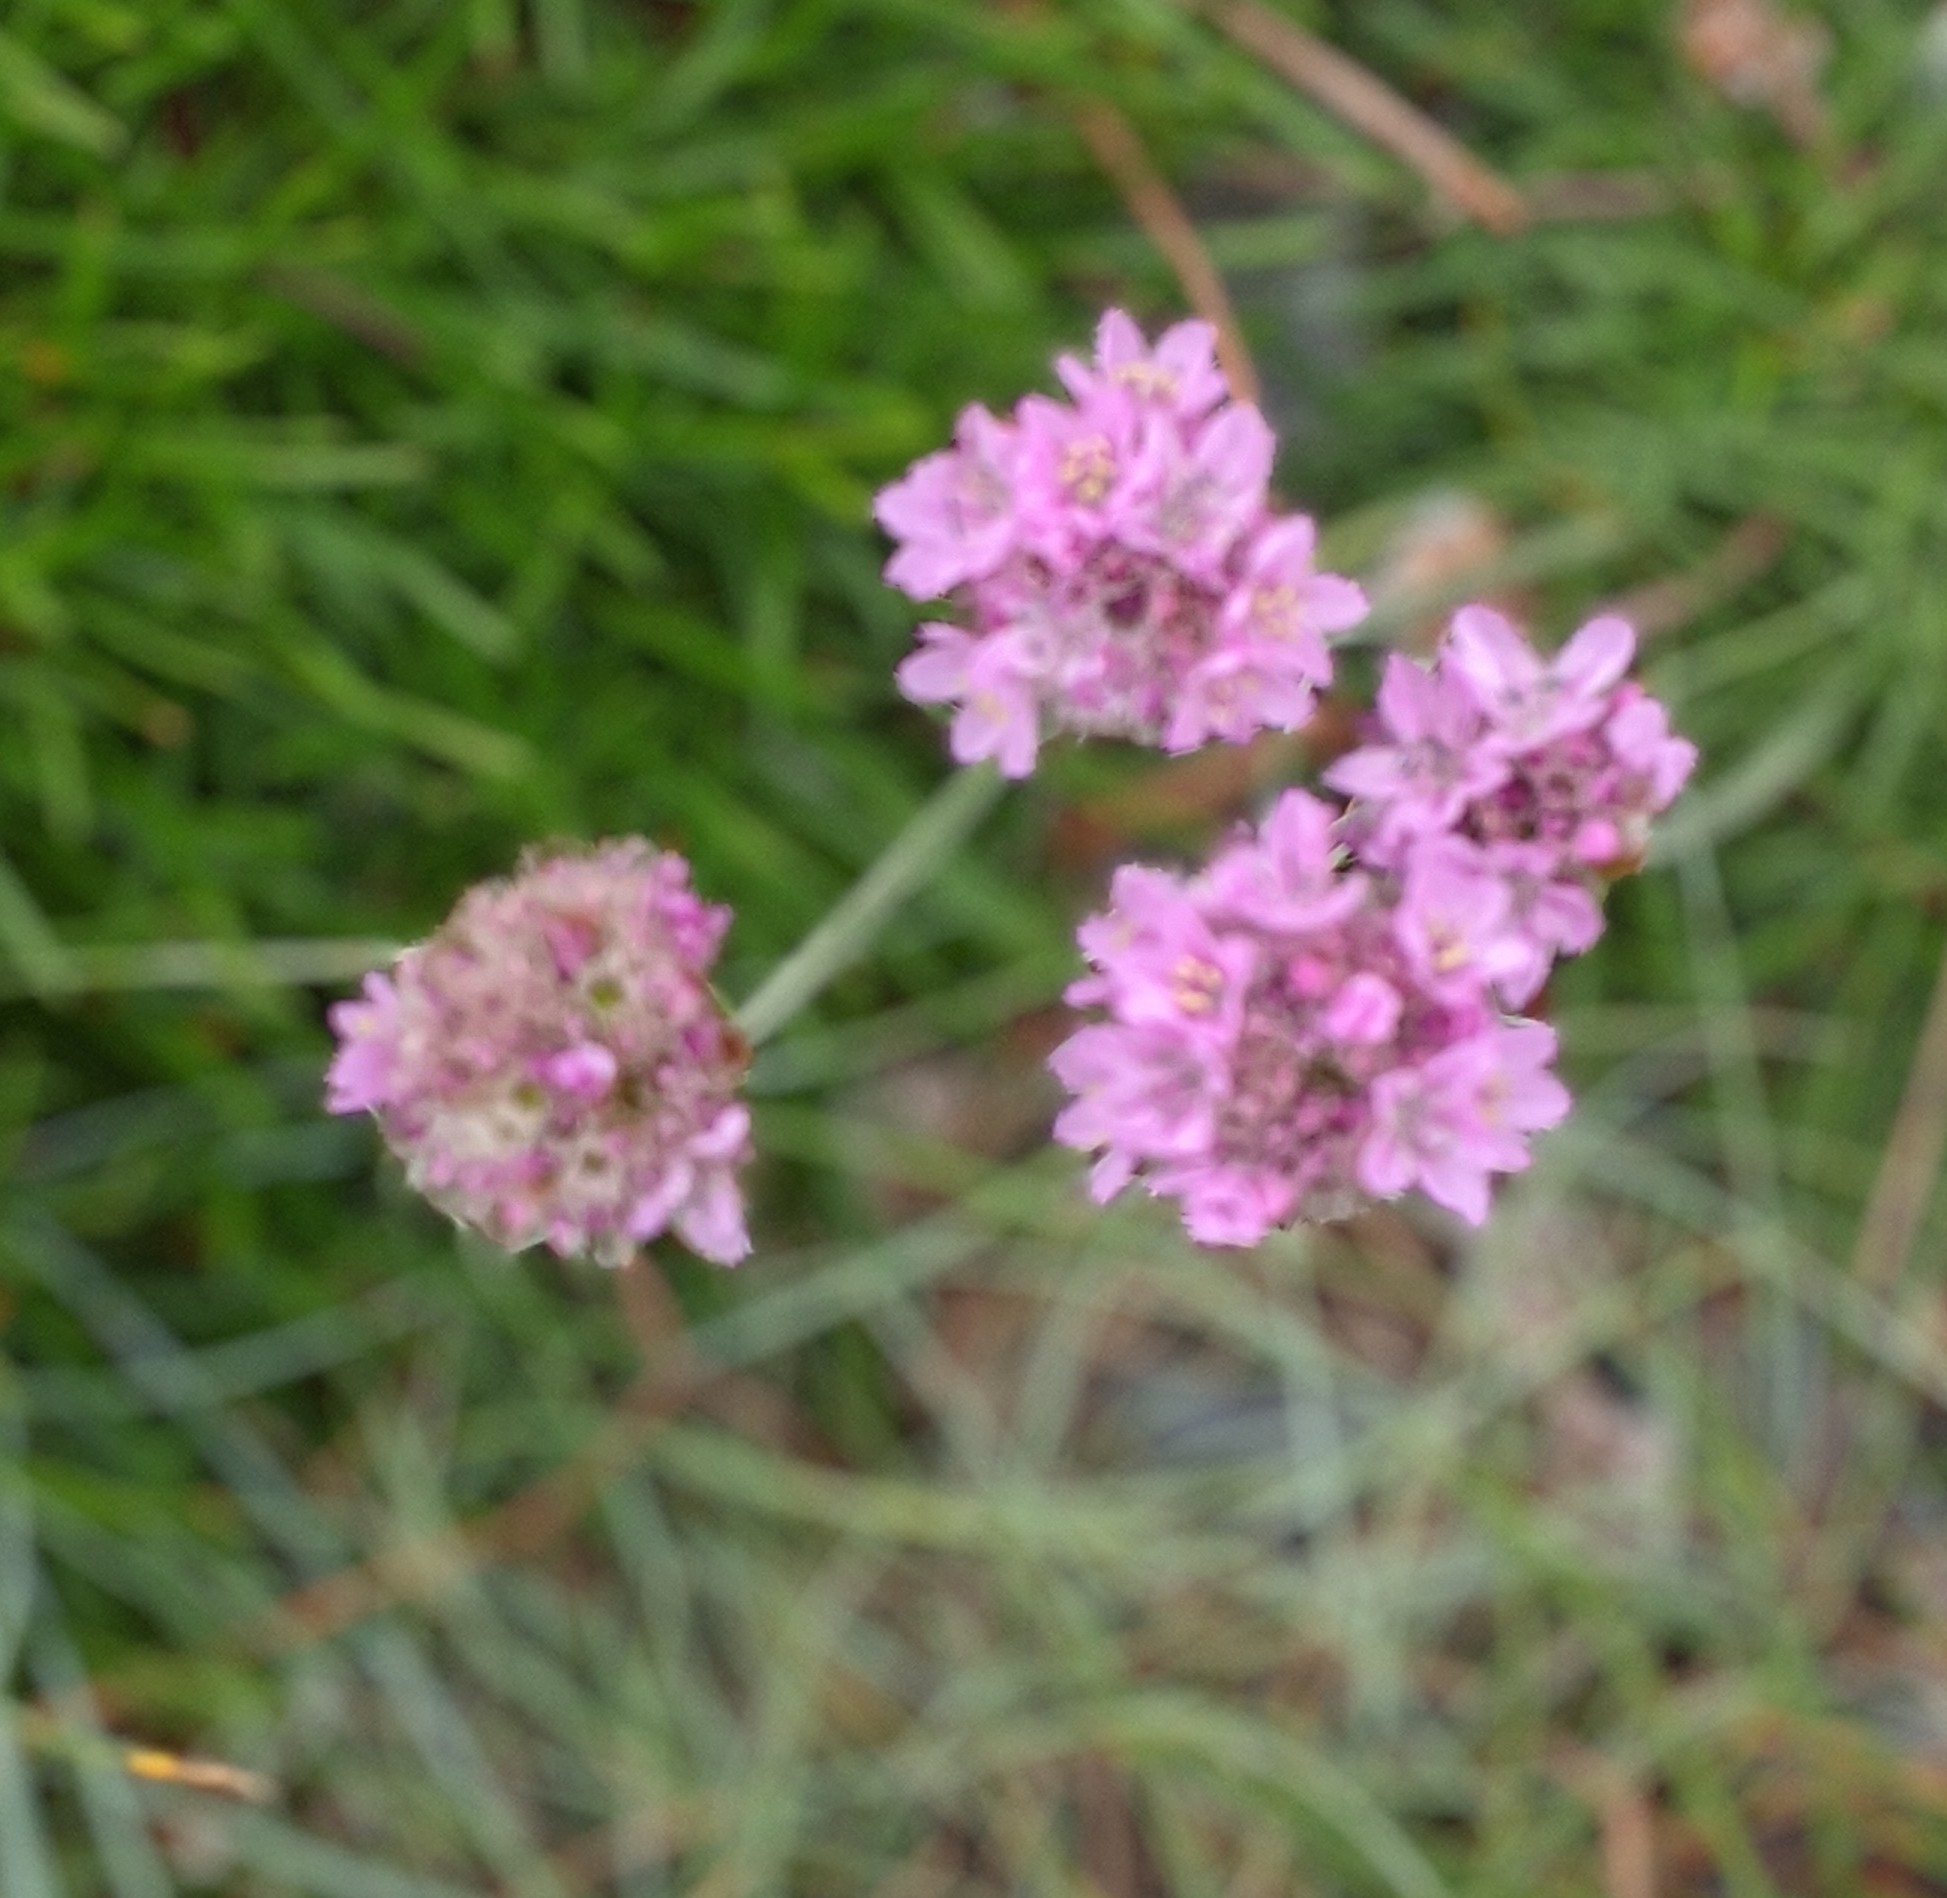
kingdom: Plantae
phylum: Tracheophyta
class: Magnoliopsida
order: Caryophyllales
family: Plumbaginaceae
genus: Armeria
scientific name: Armeria maritima
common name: Thrift
